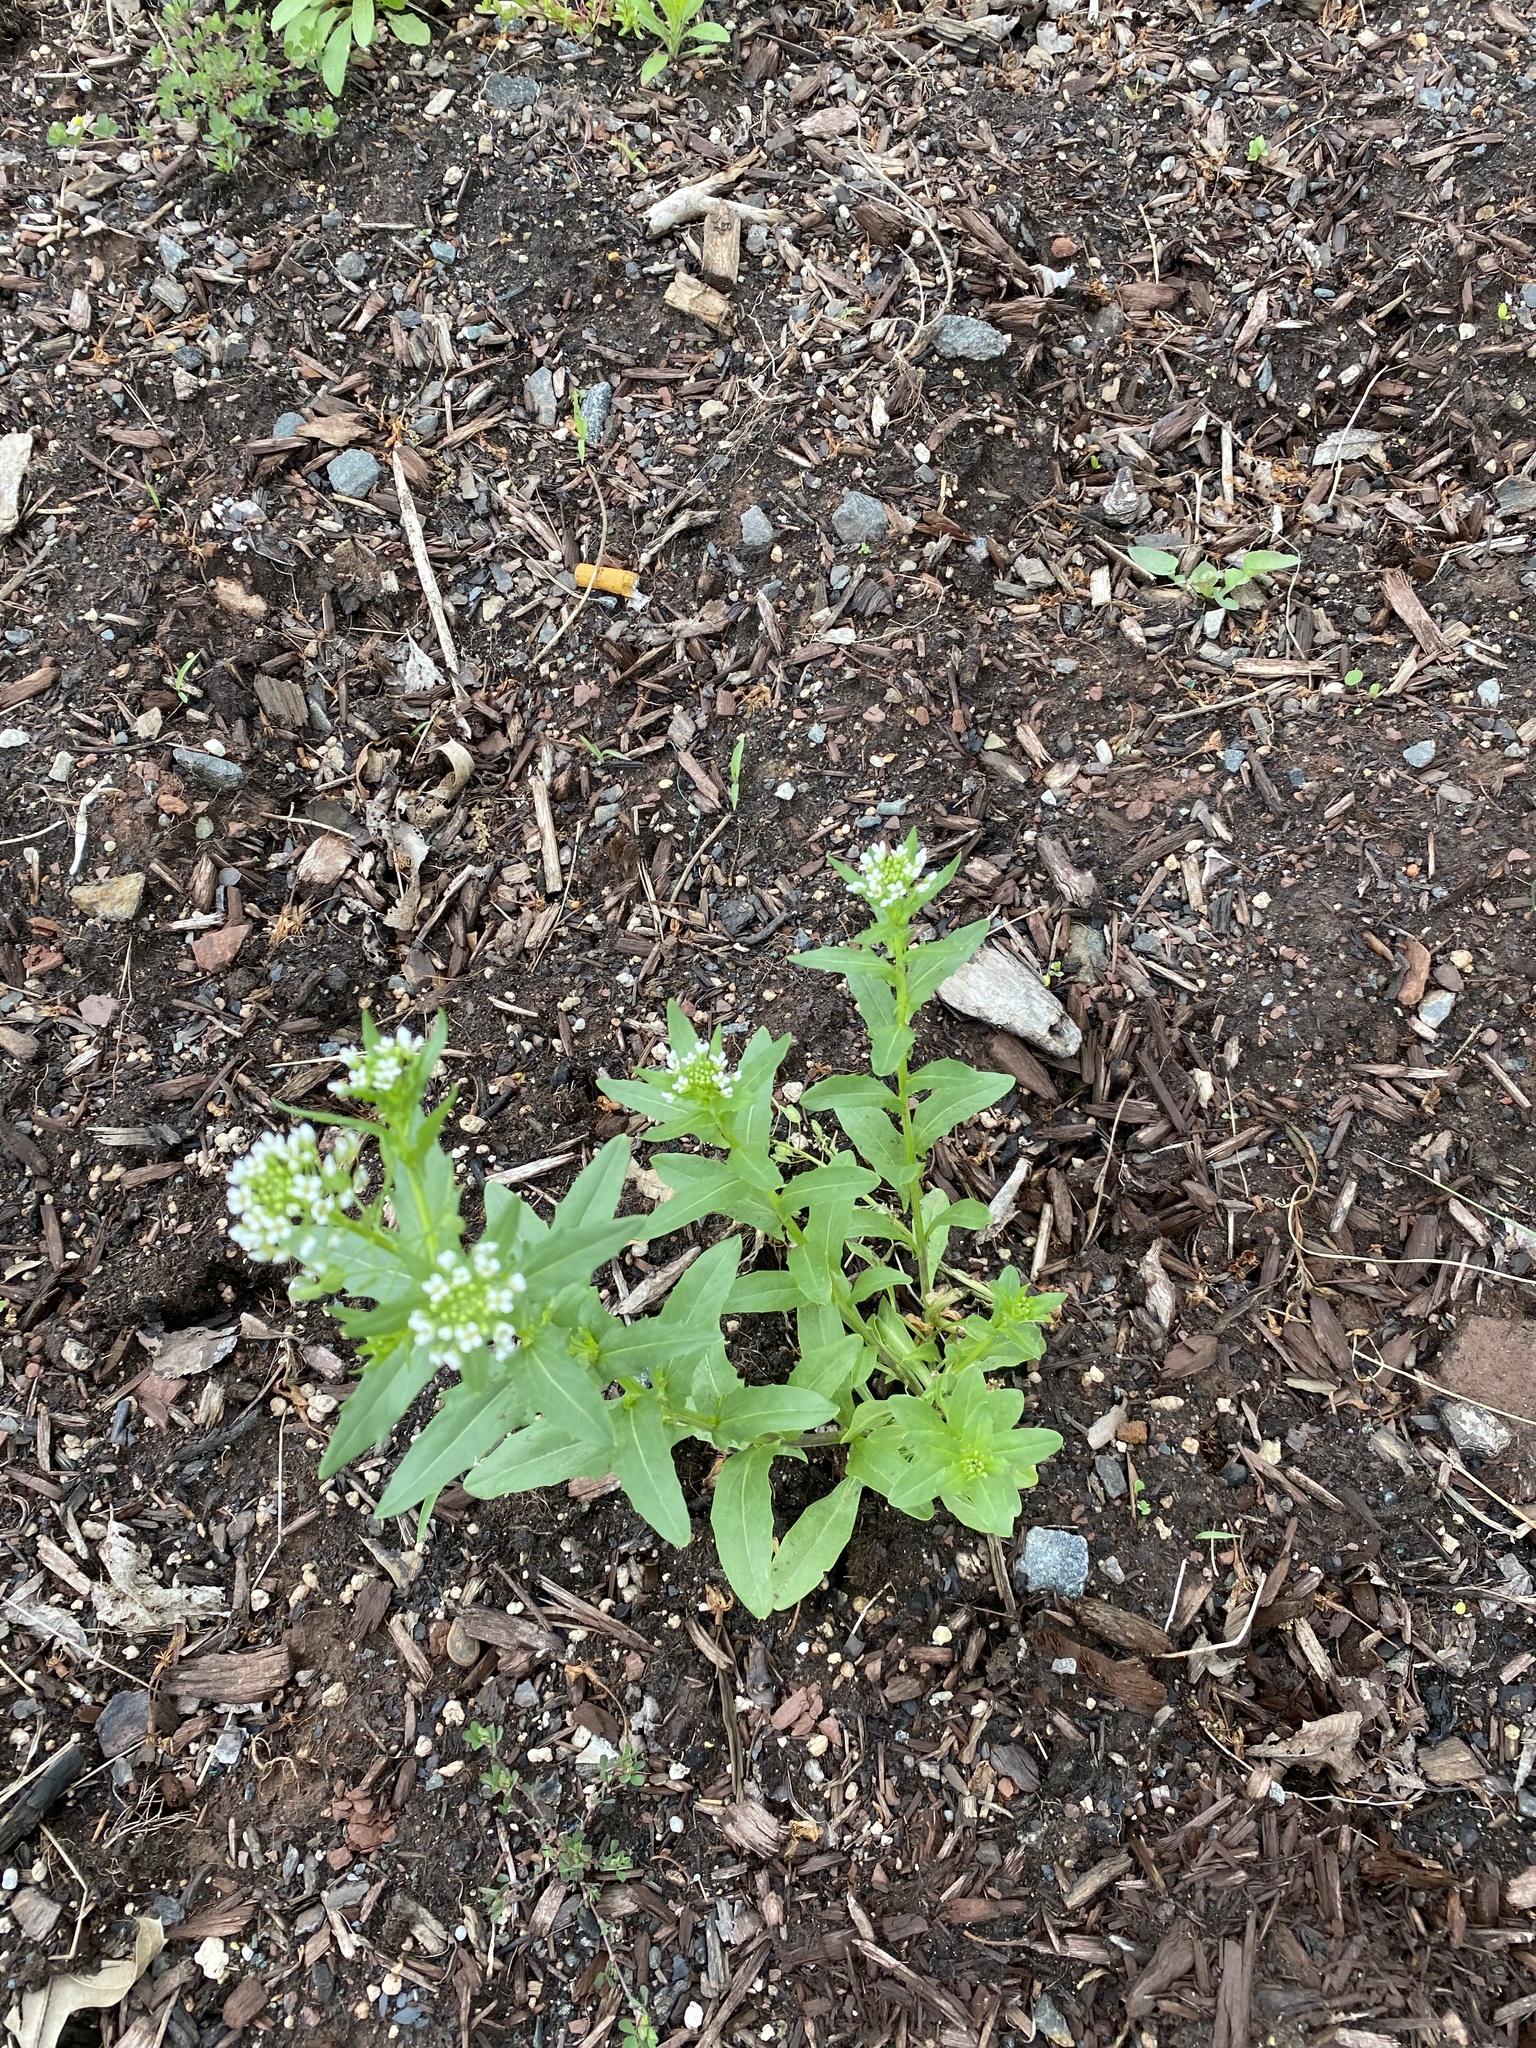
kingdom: Plantae
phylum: Tracheophyta
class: Magnoliopsida
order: Brassicales
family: Brassicaceae
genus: Thlaspi
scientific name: Thlaspi arvense
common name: Field pennycress
